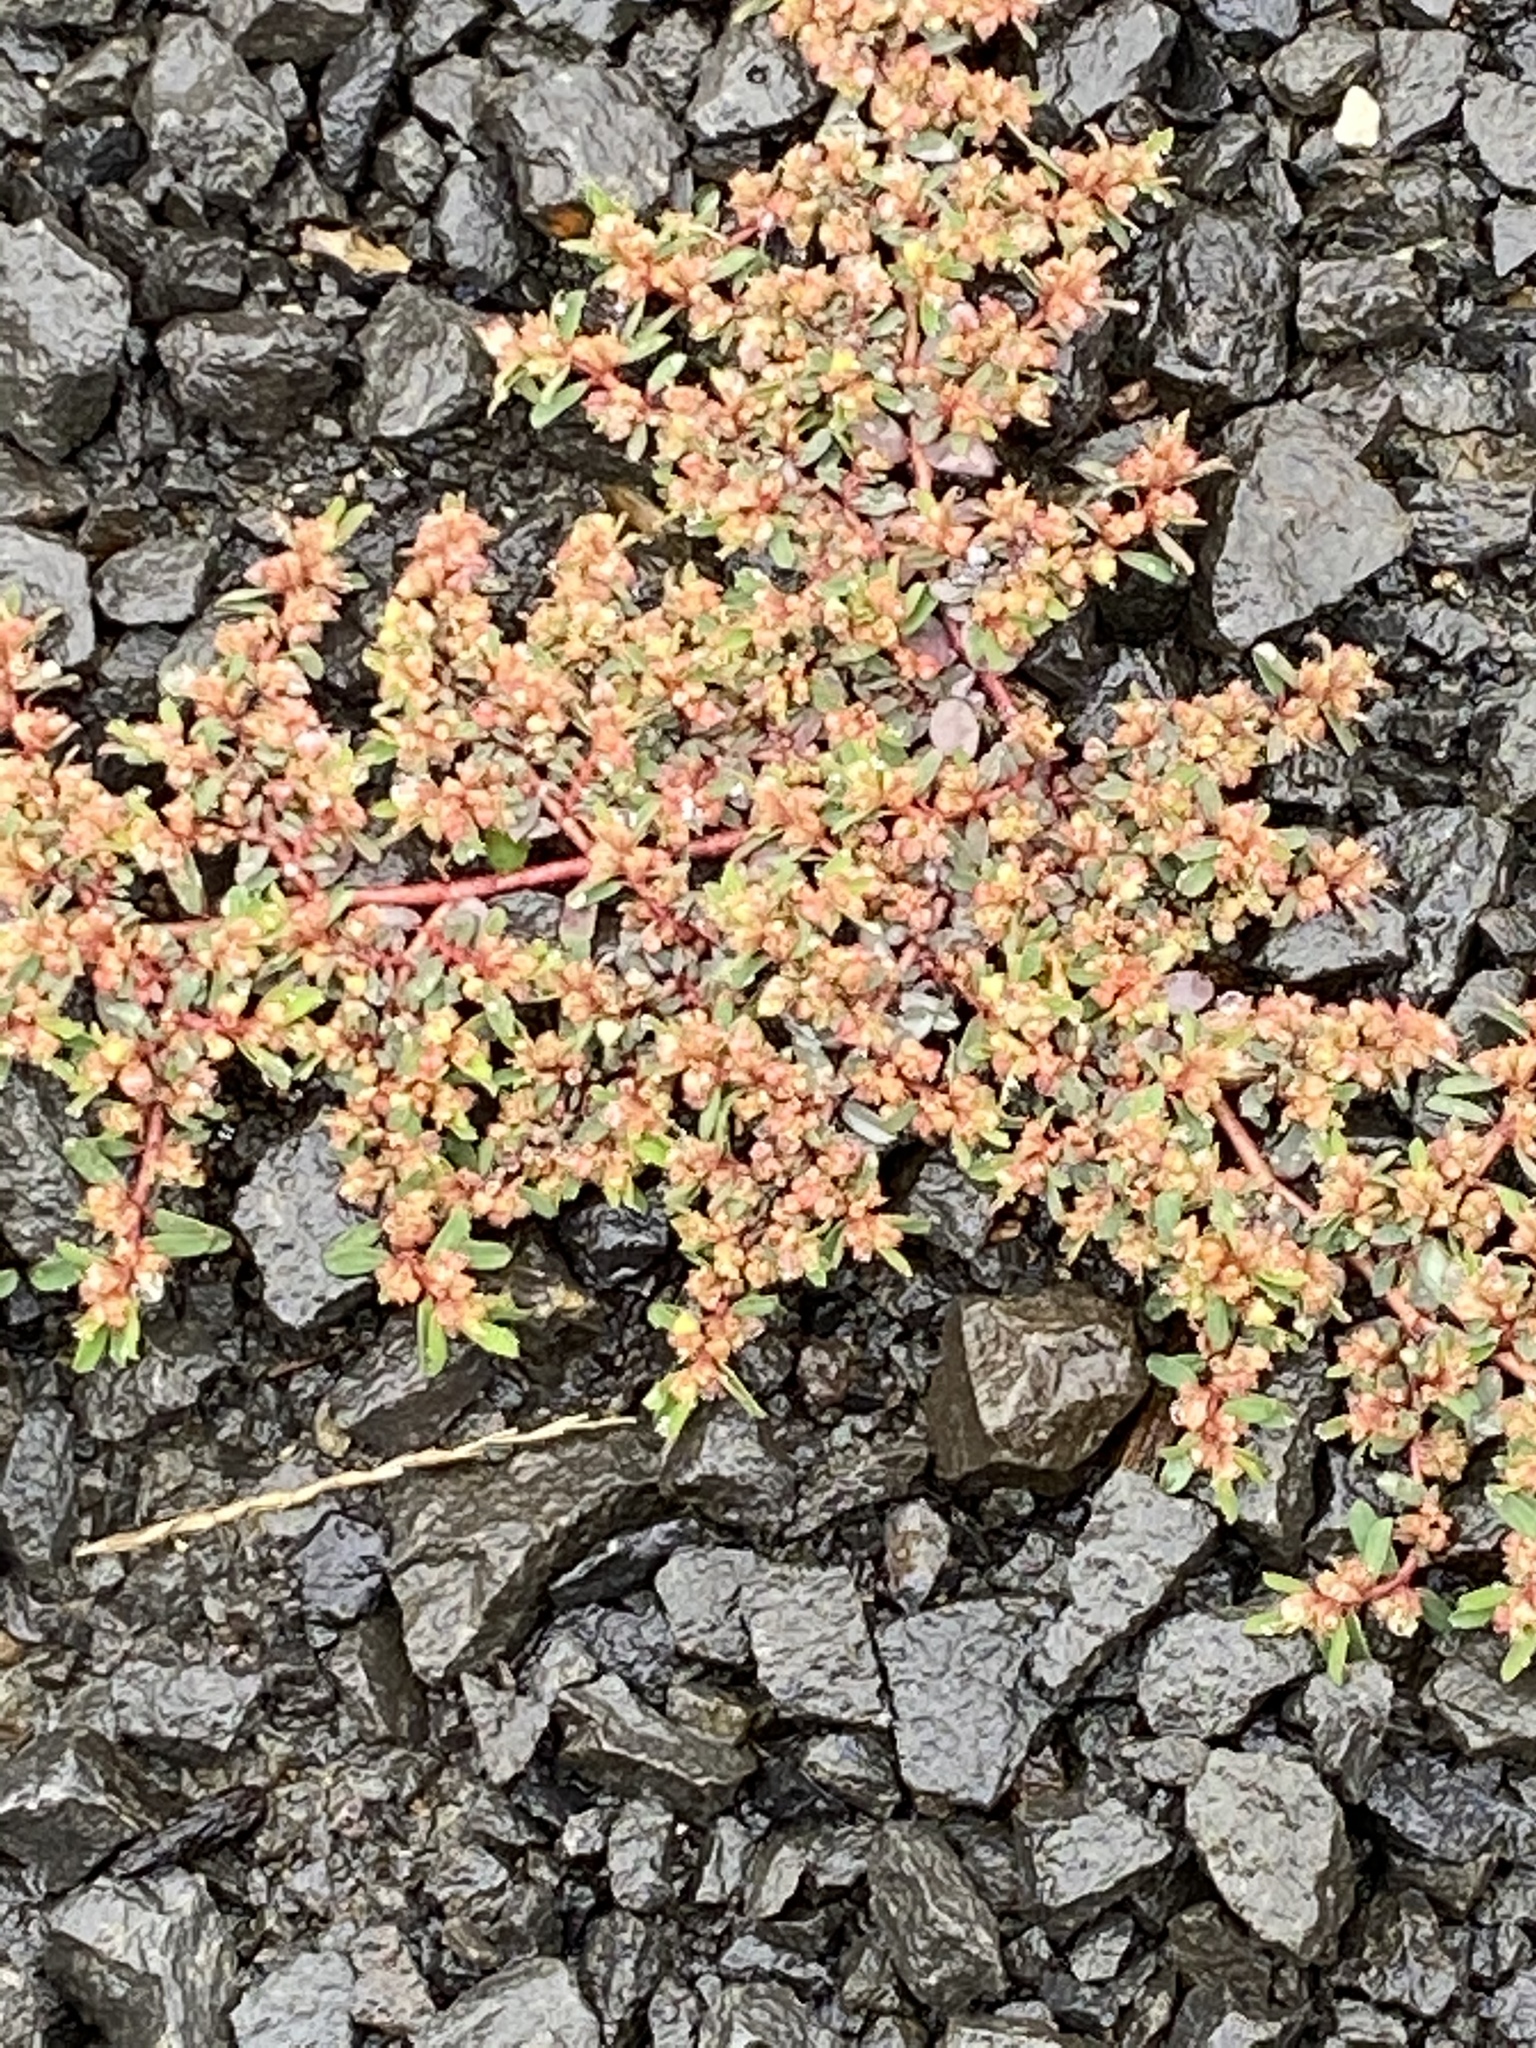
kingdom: Plantae
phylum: Tracheophyta
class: Magnoliopsida
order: Malpighiales
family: Euphorbiaceae
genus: Euphorbia
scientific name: Euphorbia maculata
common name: Spotted spurge
